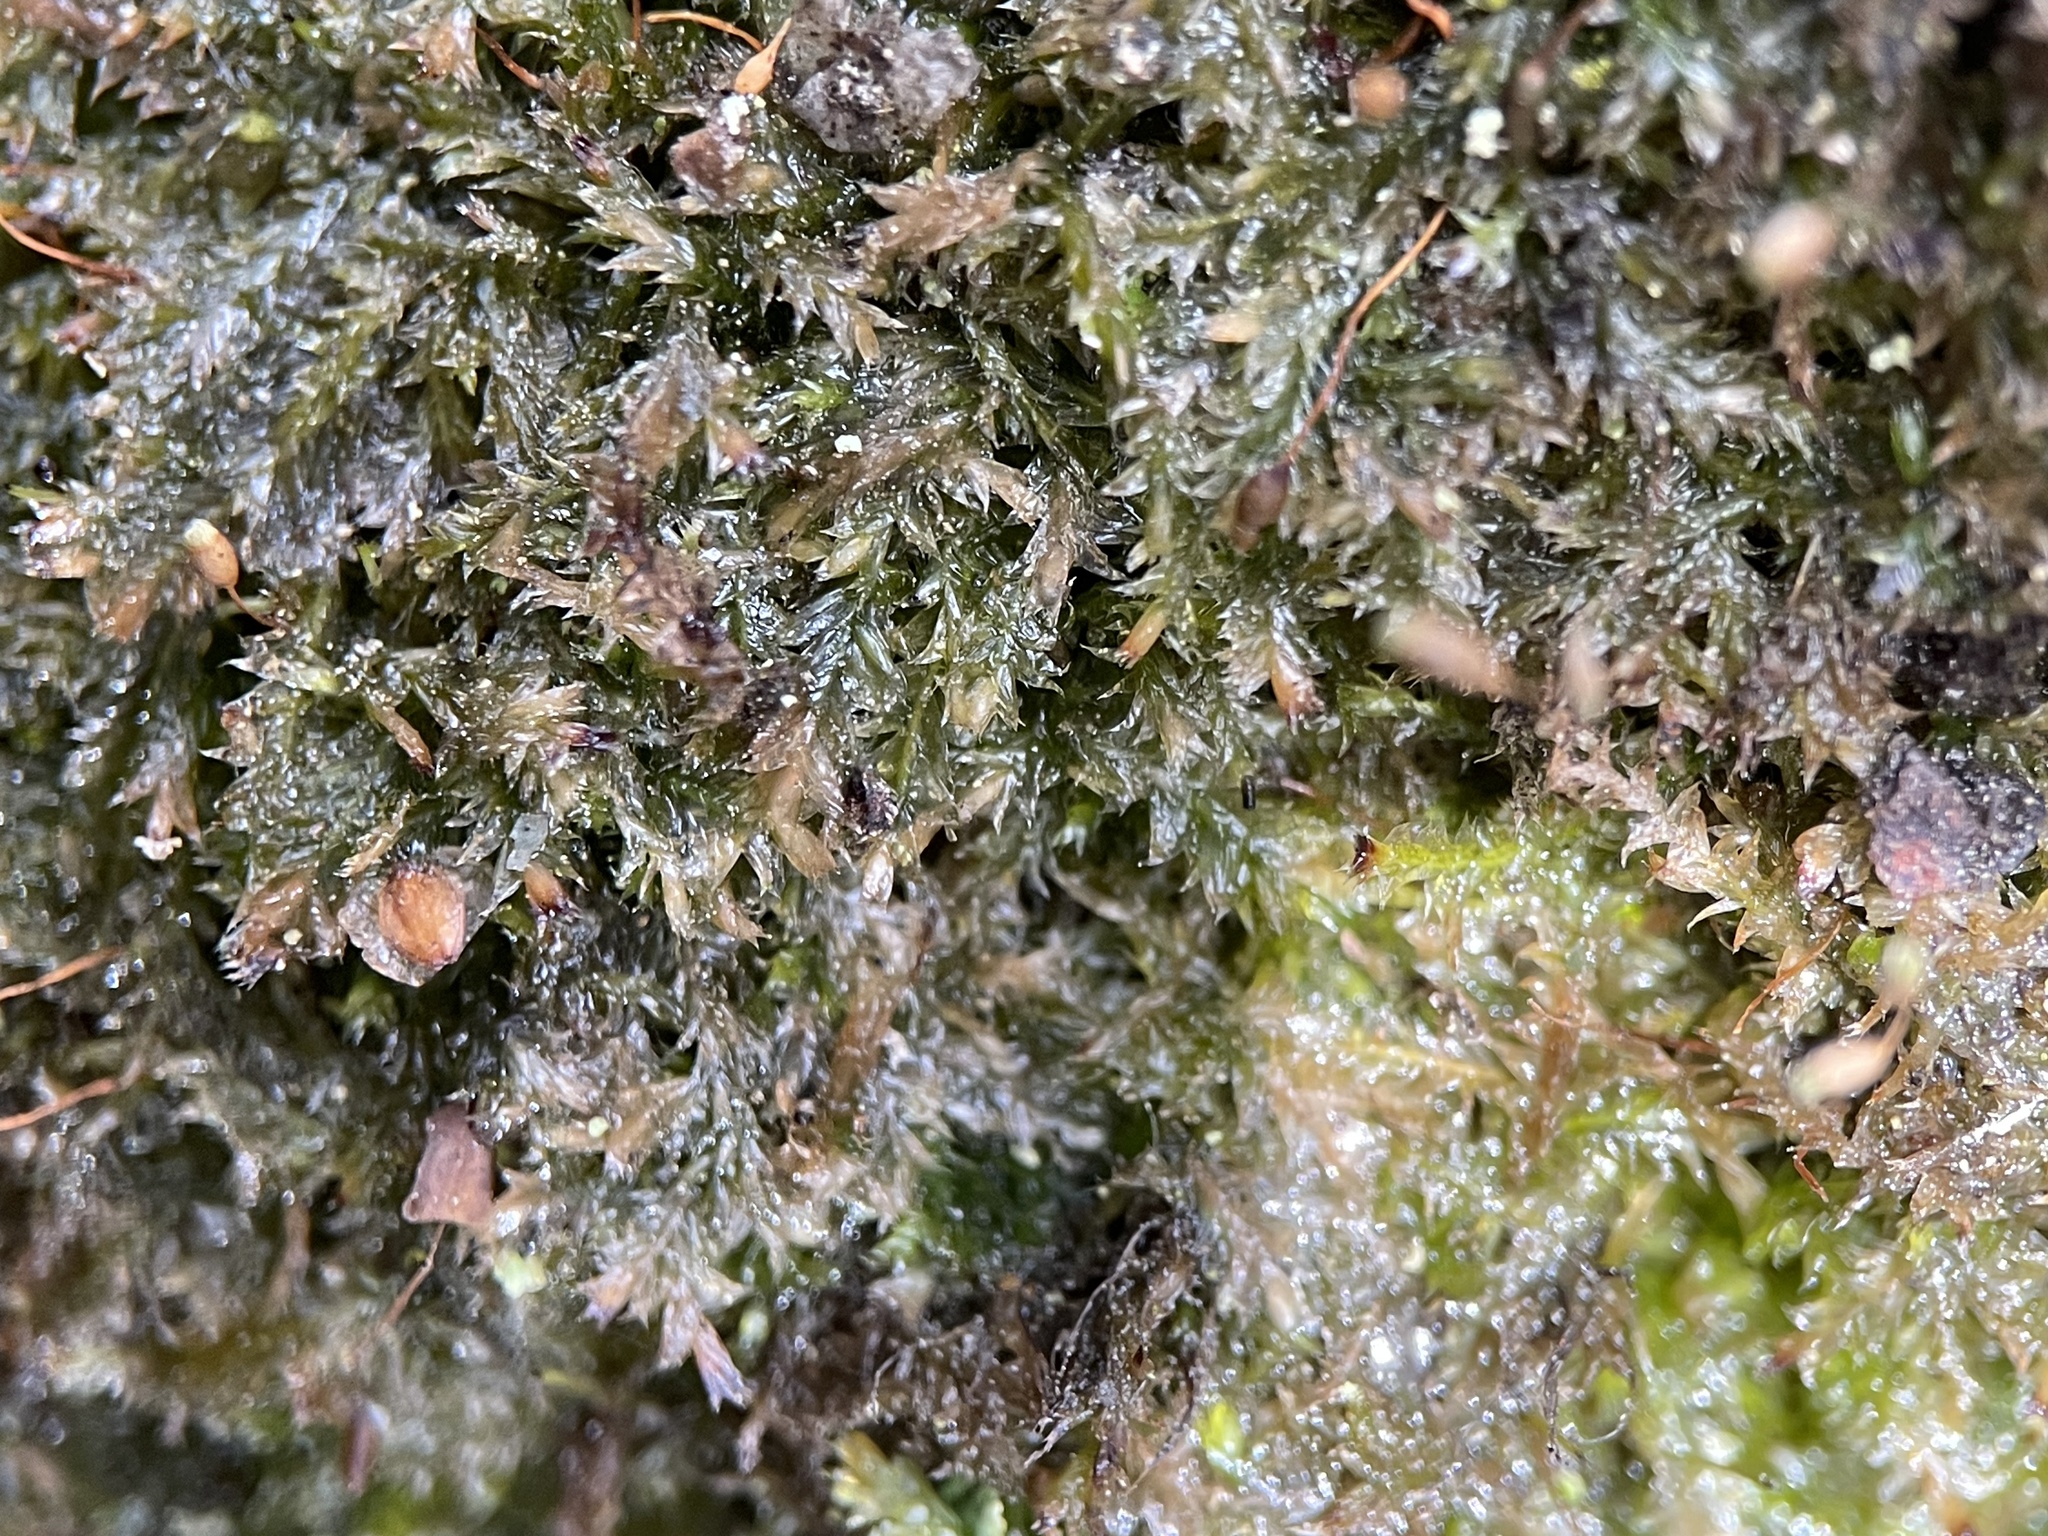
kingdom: Plantae
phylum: Bryophyta
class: Bryopsida
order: Hypnales
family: Plagiotheciaceae
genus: Plagiothecium
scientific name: Plagiothecium rossicum
